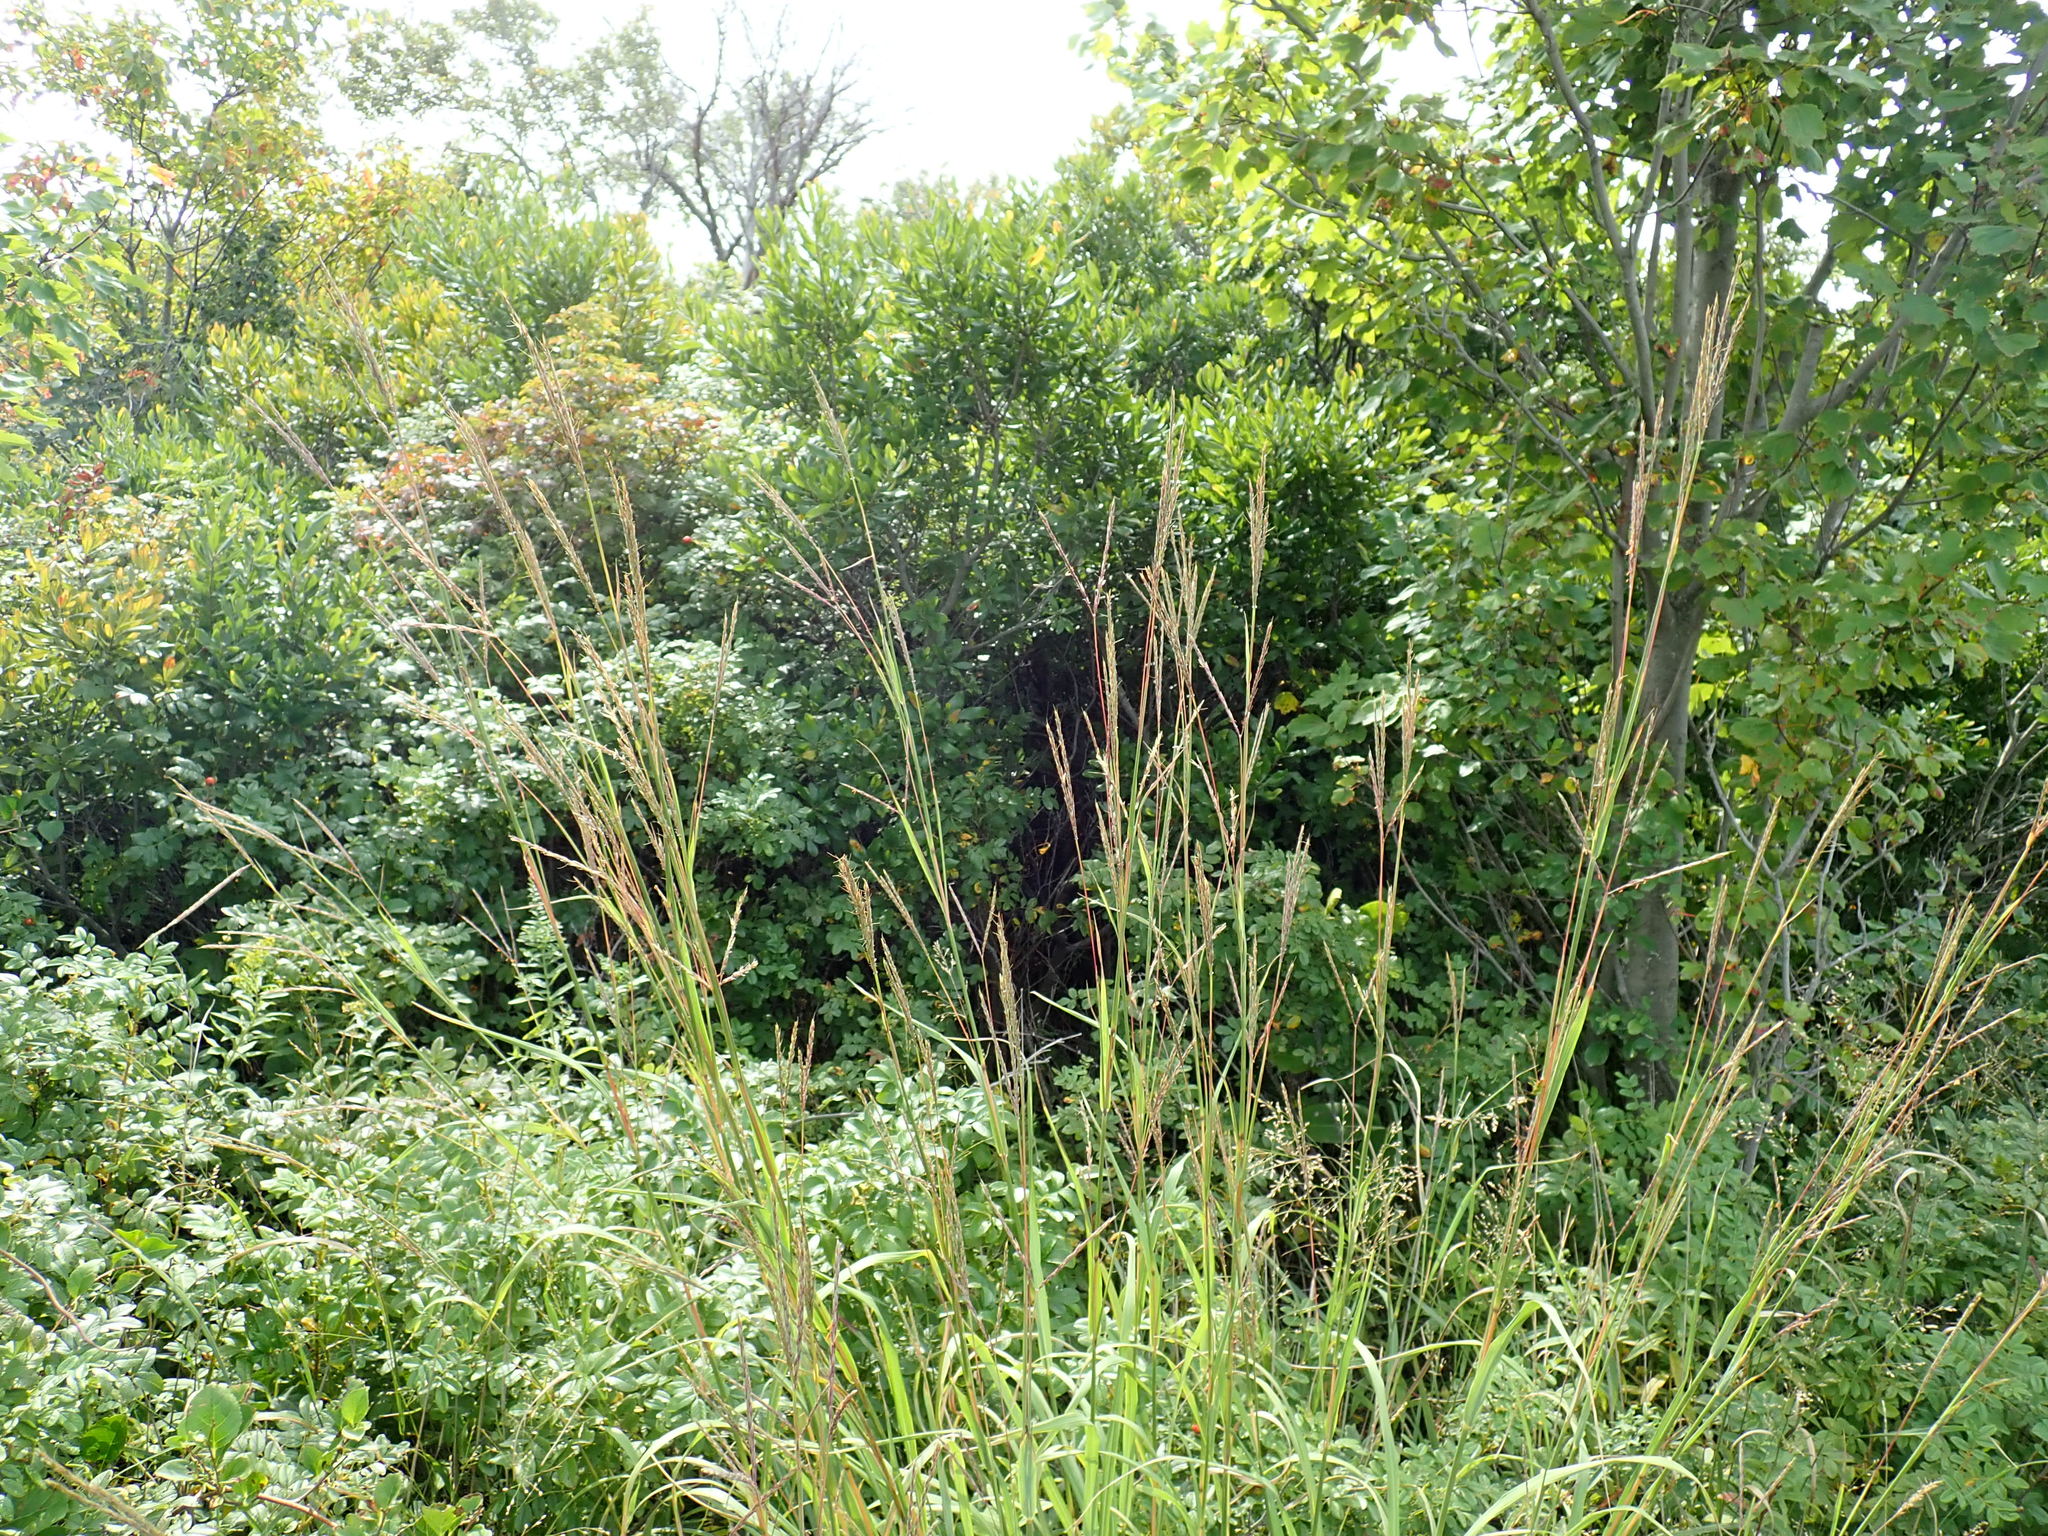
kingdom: Plantae
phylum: Tracheophyta
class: Liliopsida
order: Poales
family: Poaceae
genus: Andropogon
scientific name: Andropogon gerardi
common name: Big bluestem
